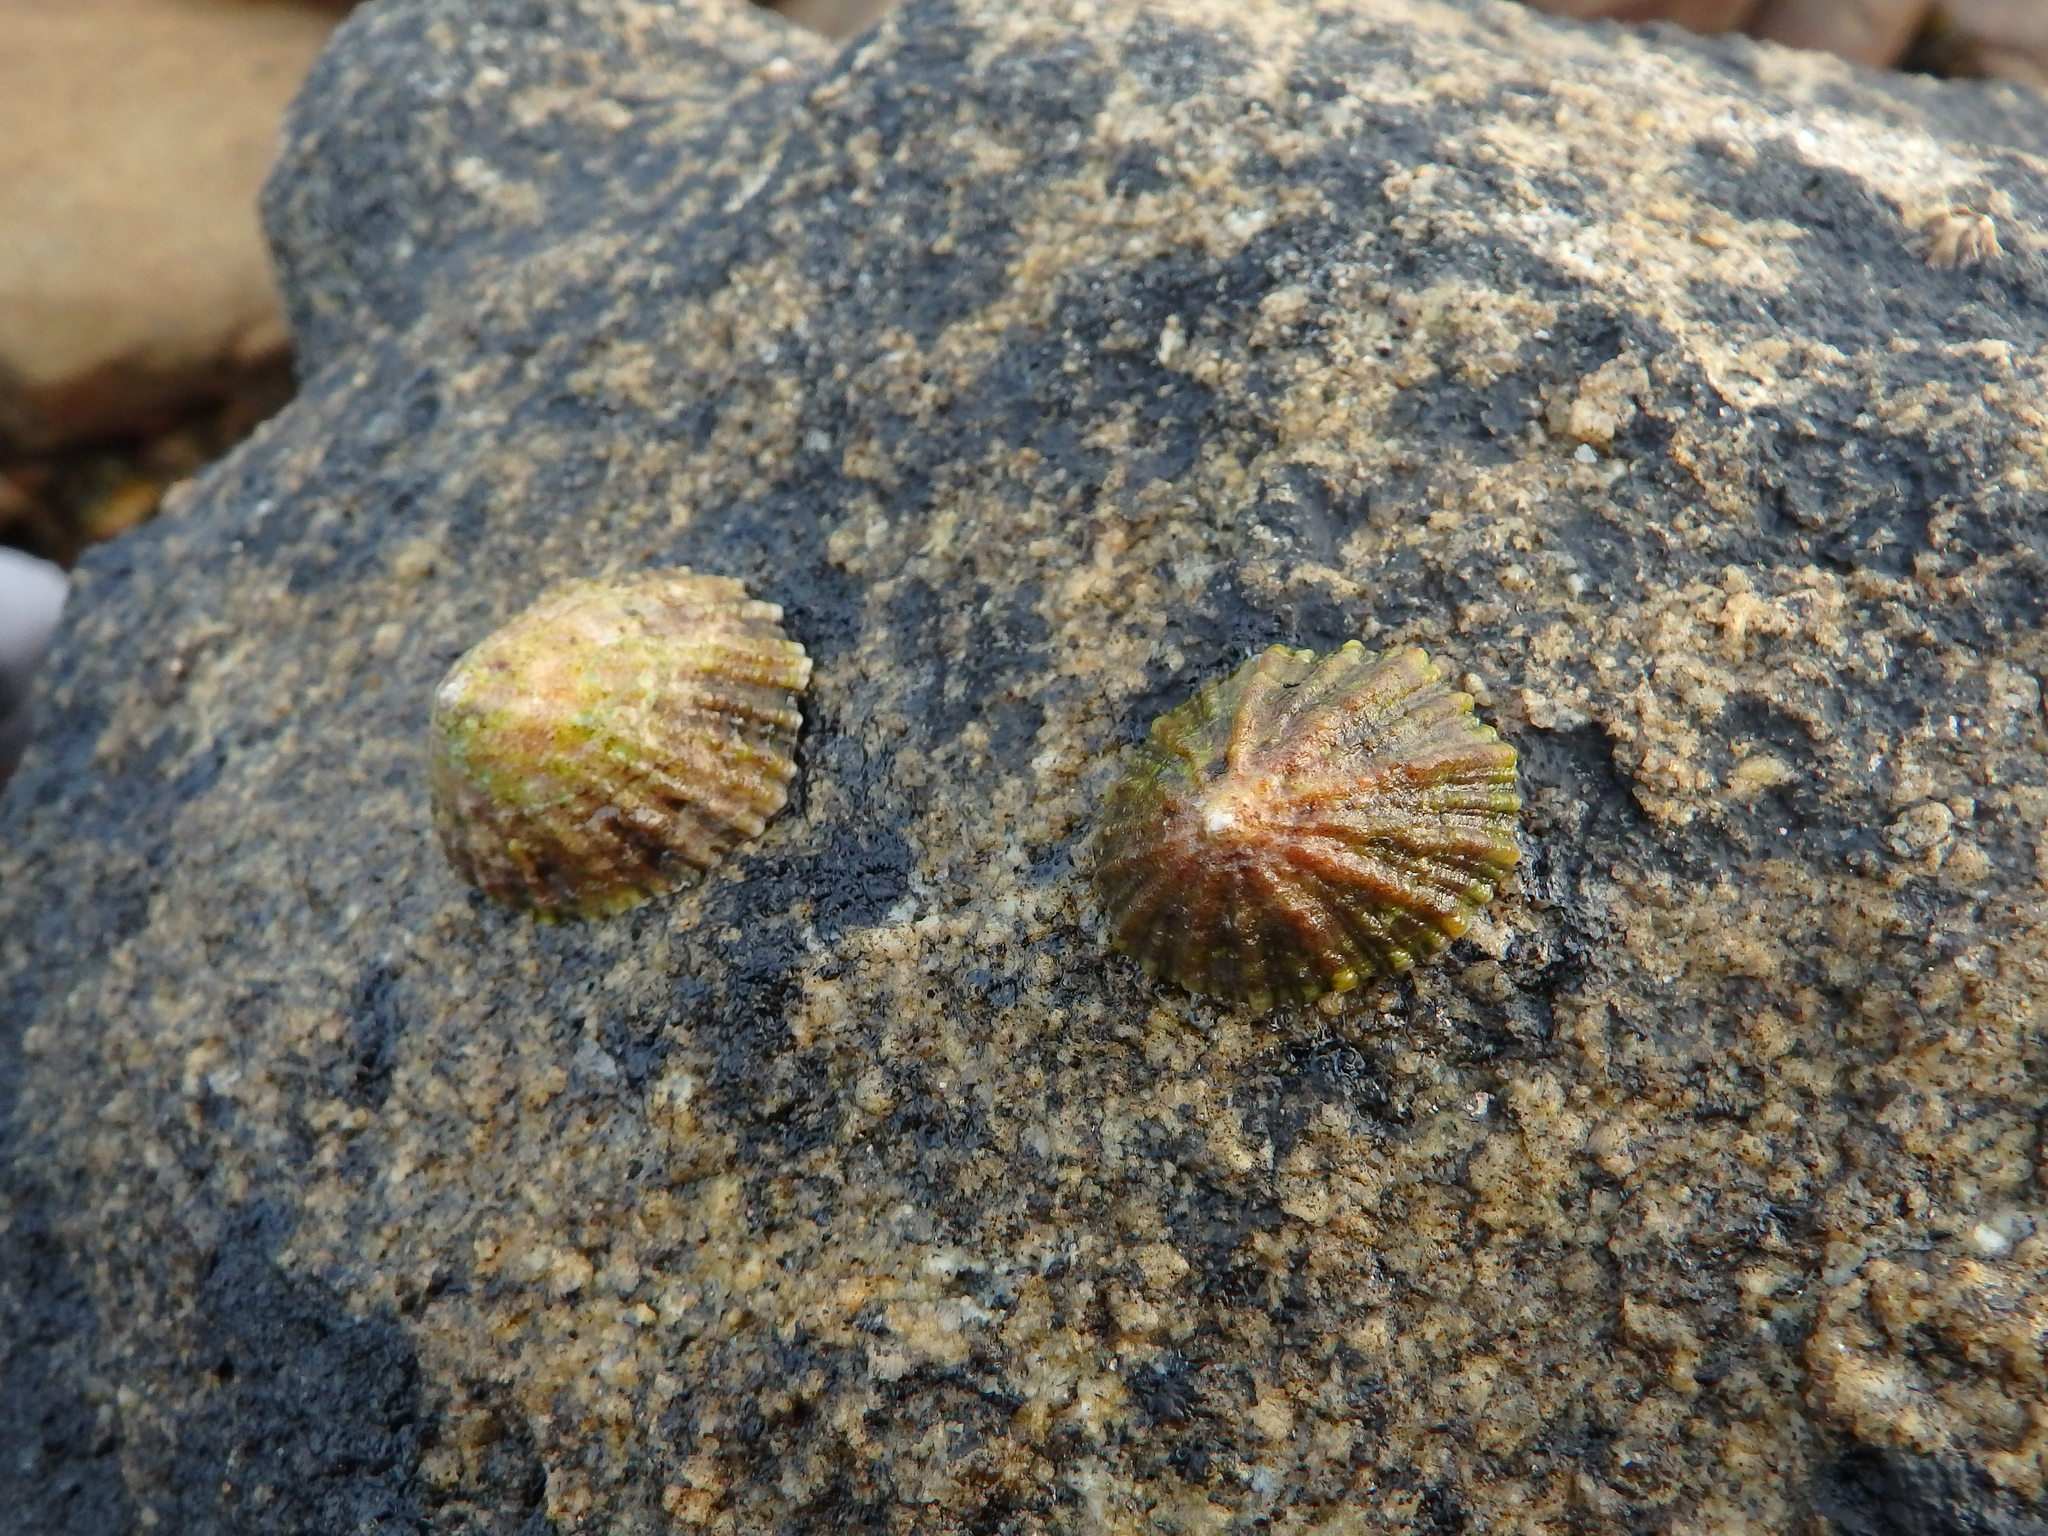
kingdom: Animalia
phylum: Mollusca
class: Gastropoda
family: Patellidae
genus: Patella
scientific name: Patella vulgata
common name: Common limpet
